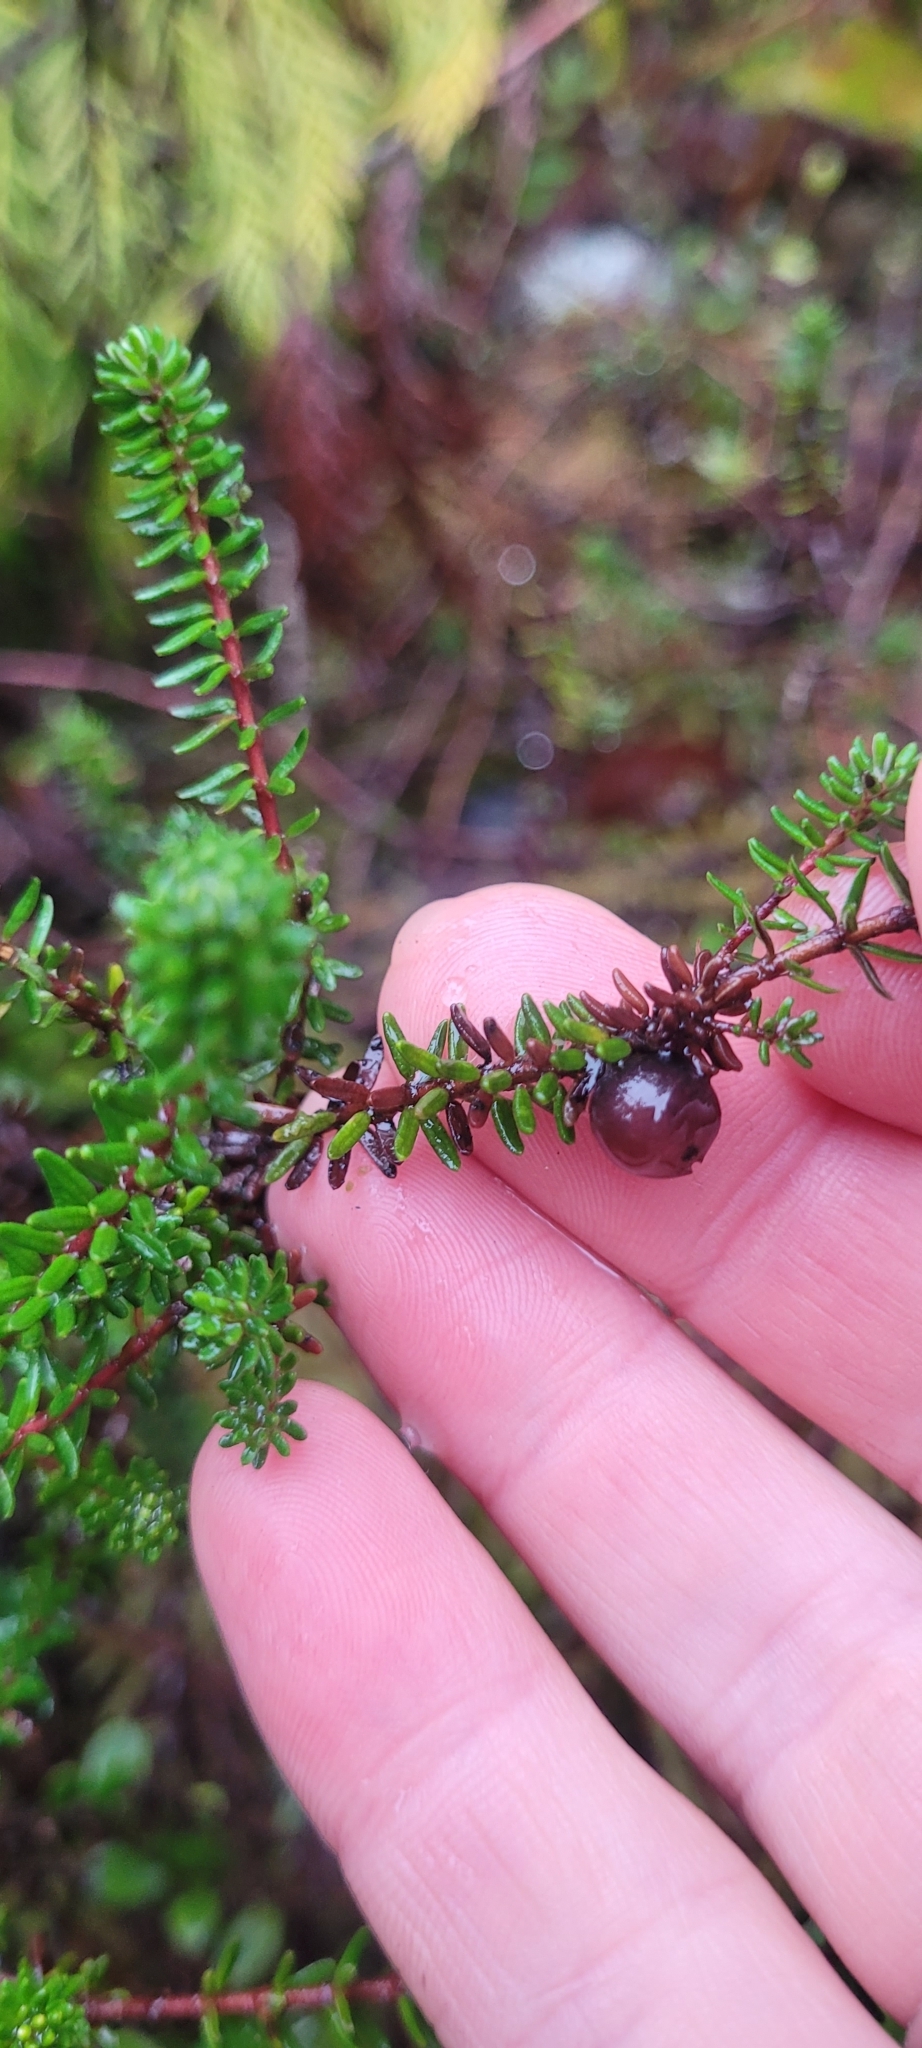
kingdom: Plantae
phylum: Tracheophyta
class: Magnoliopsida
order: Ericales
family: Ericaceae
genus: Empetrum
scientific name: Empetrum nigrum
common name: Black crowberry
